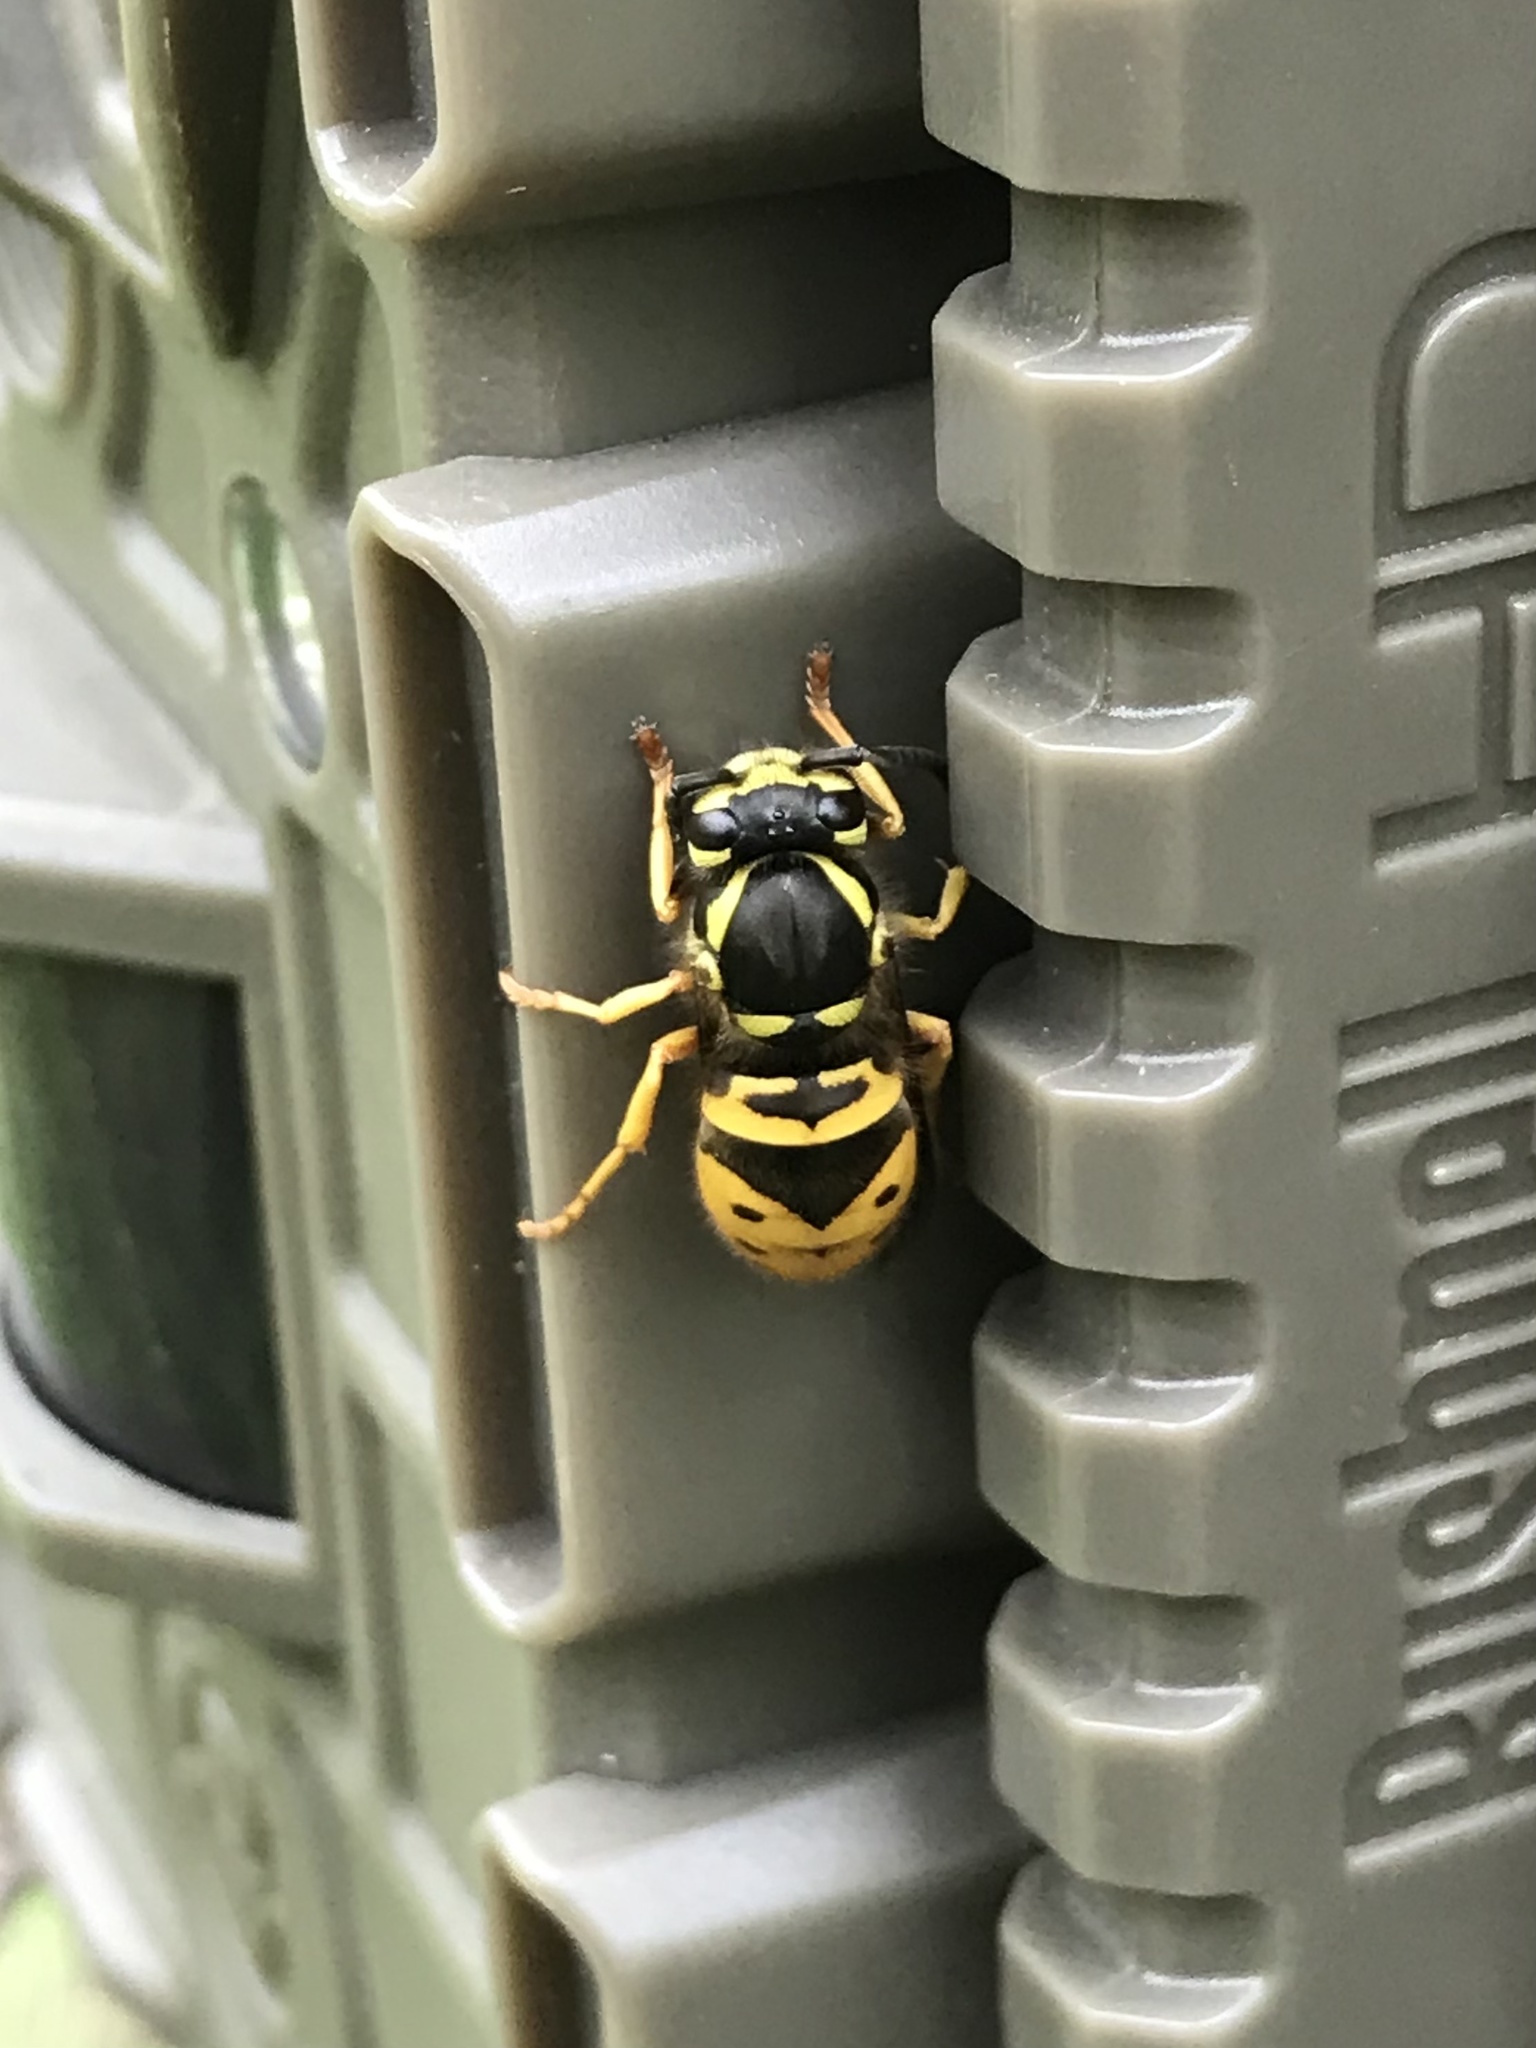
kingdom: Animalia
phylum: Arthropoda
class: Insecta
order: Hymenoptera
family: Vespidae
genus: Vespula
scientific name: Vespula maculifrons
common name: Eastern yellowjacket
